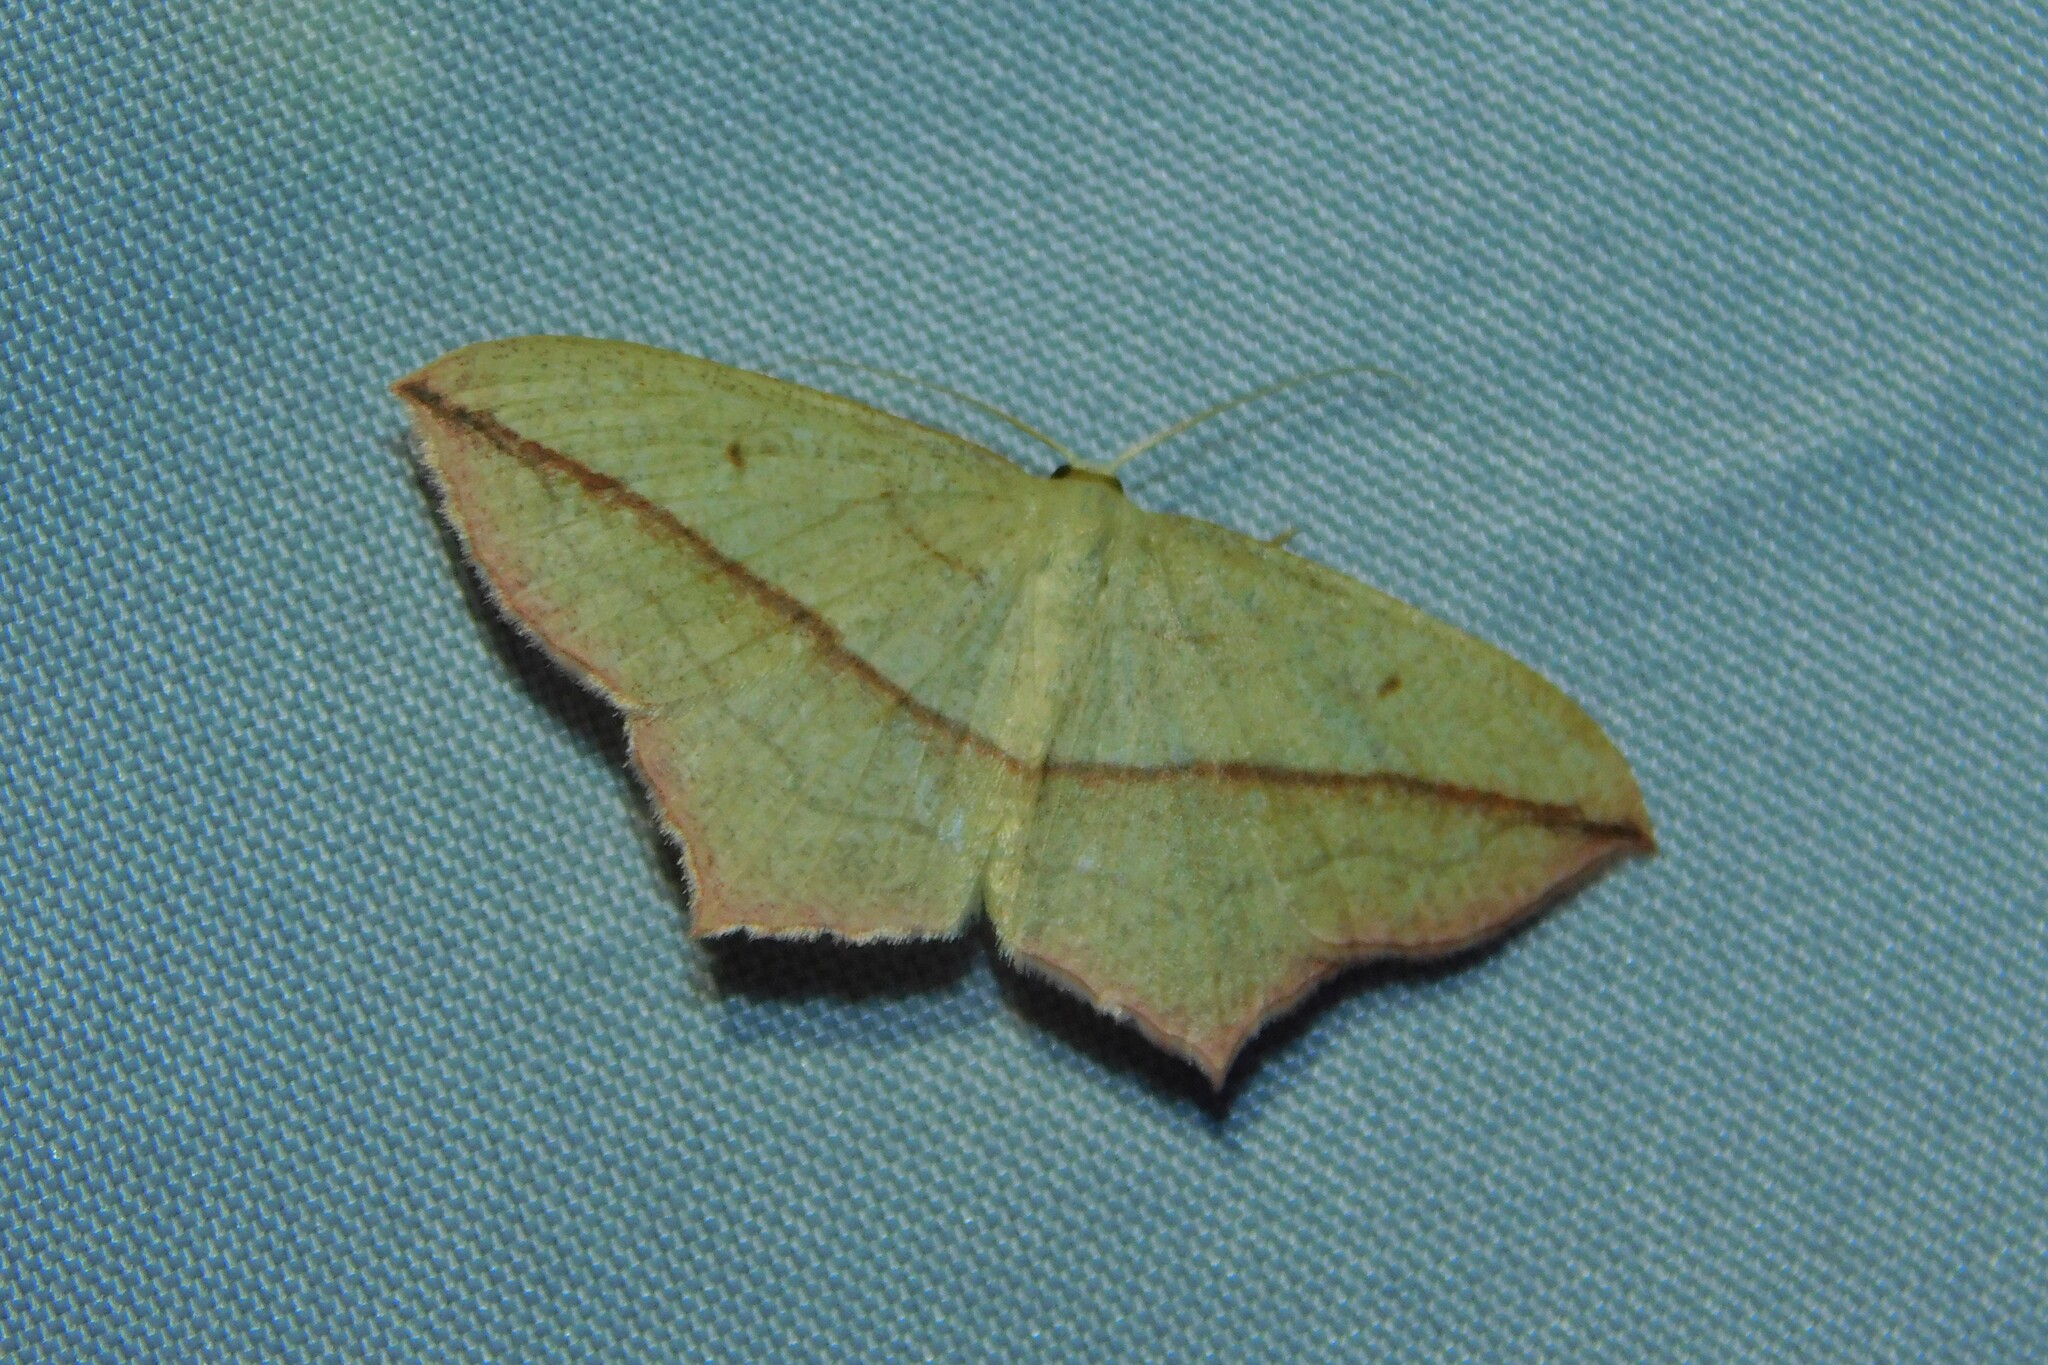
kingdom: Animalia
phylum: Arthropoda
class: Insecta
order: Lepidoptera
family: Geometridae
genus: Timandra
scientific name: Timandra comae
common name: Blood-vein
